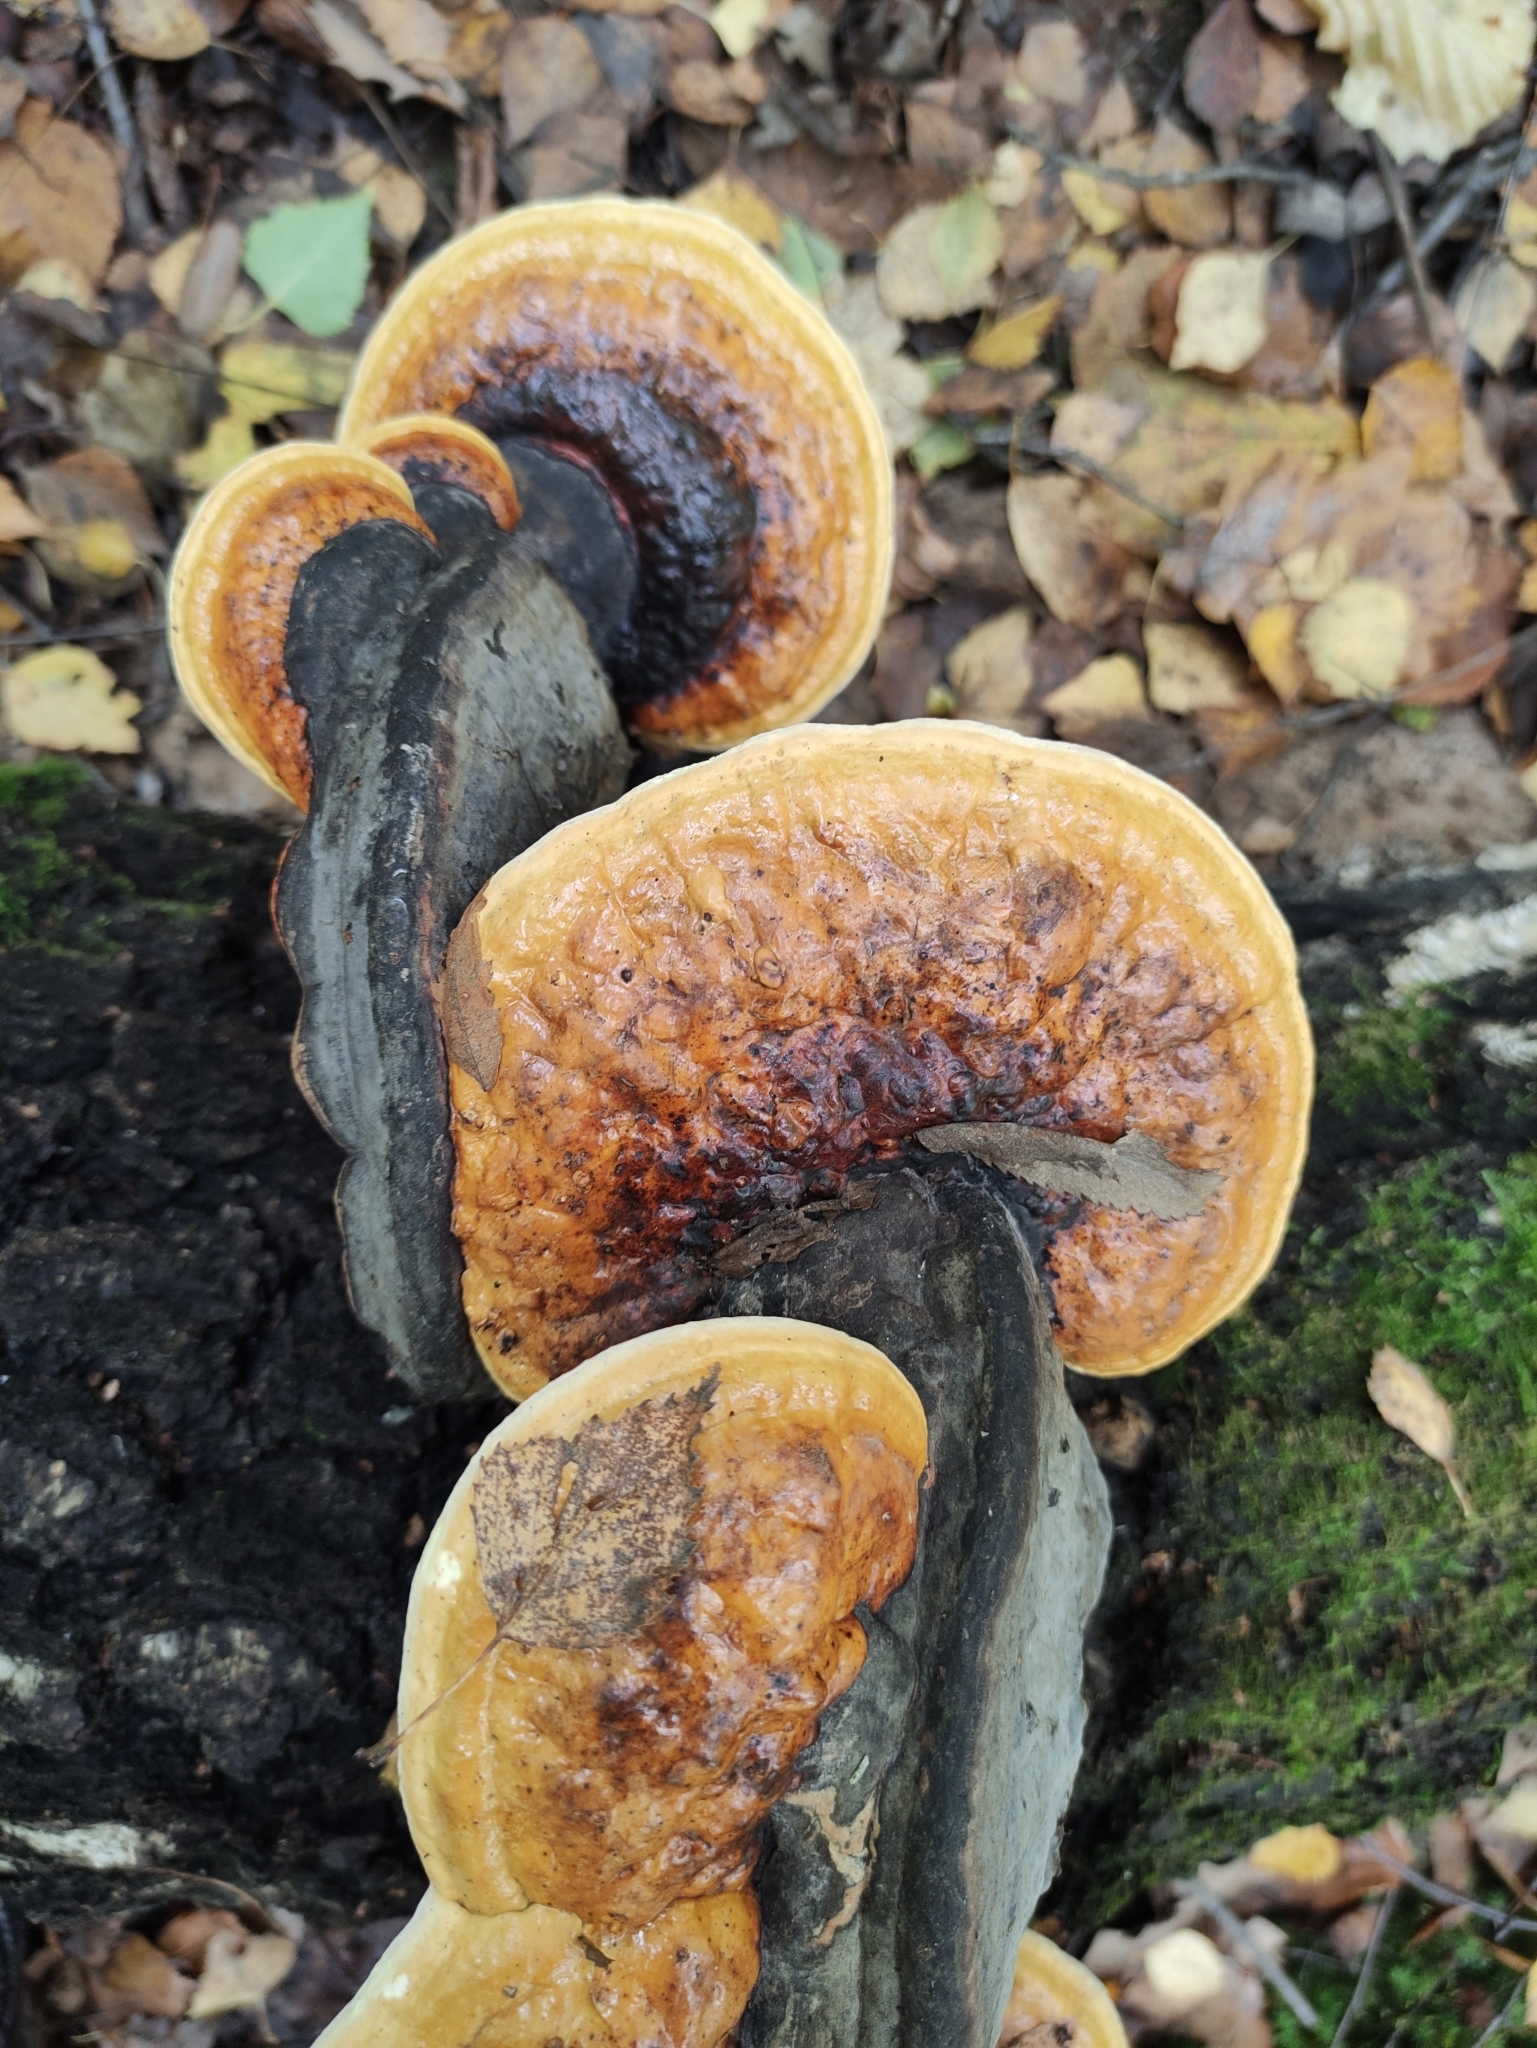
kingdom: Fungi
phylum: Basidiomycota
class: Agaricomycetes
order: Polyporales
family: Fomitopsidaceae
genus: Fomitopsis
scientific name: Fomitopsis pinicola
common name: Red-belted bracket
